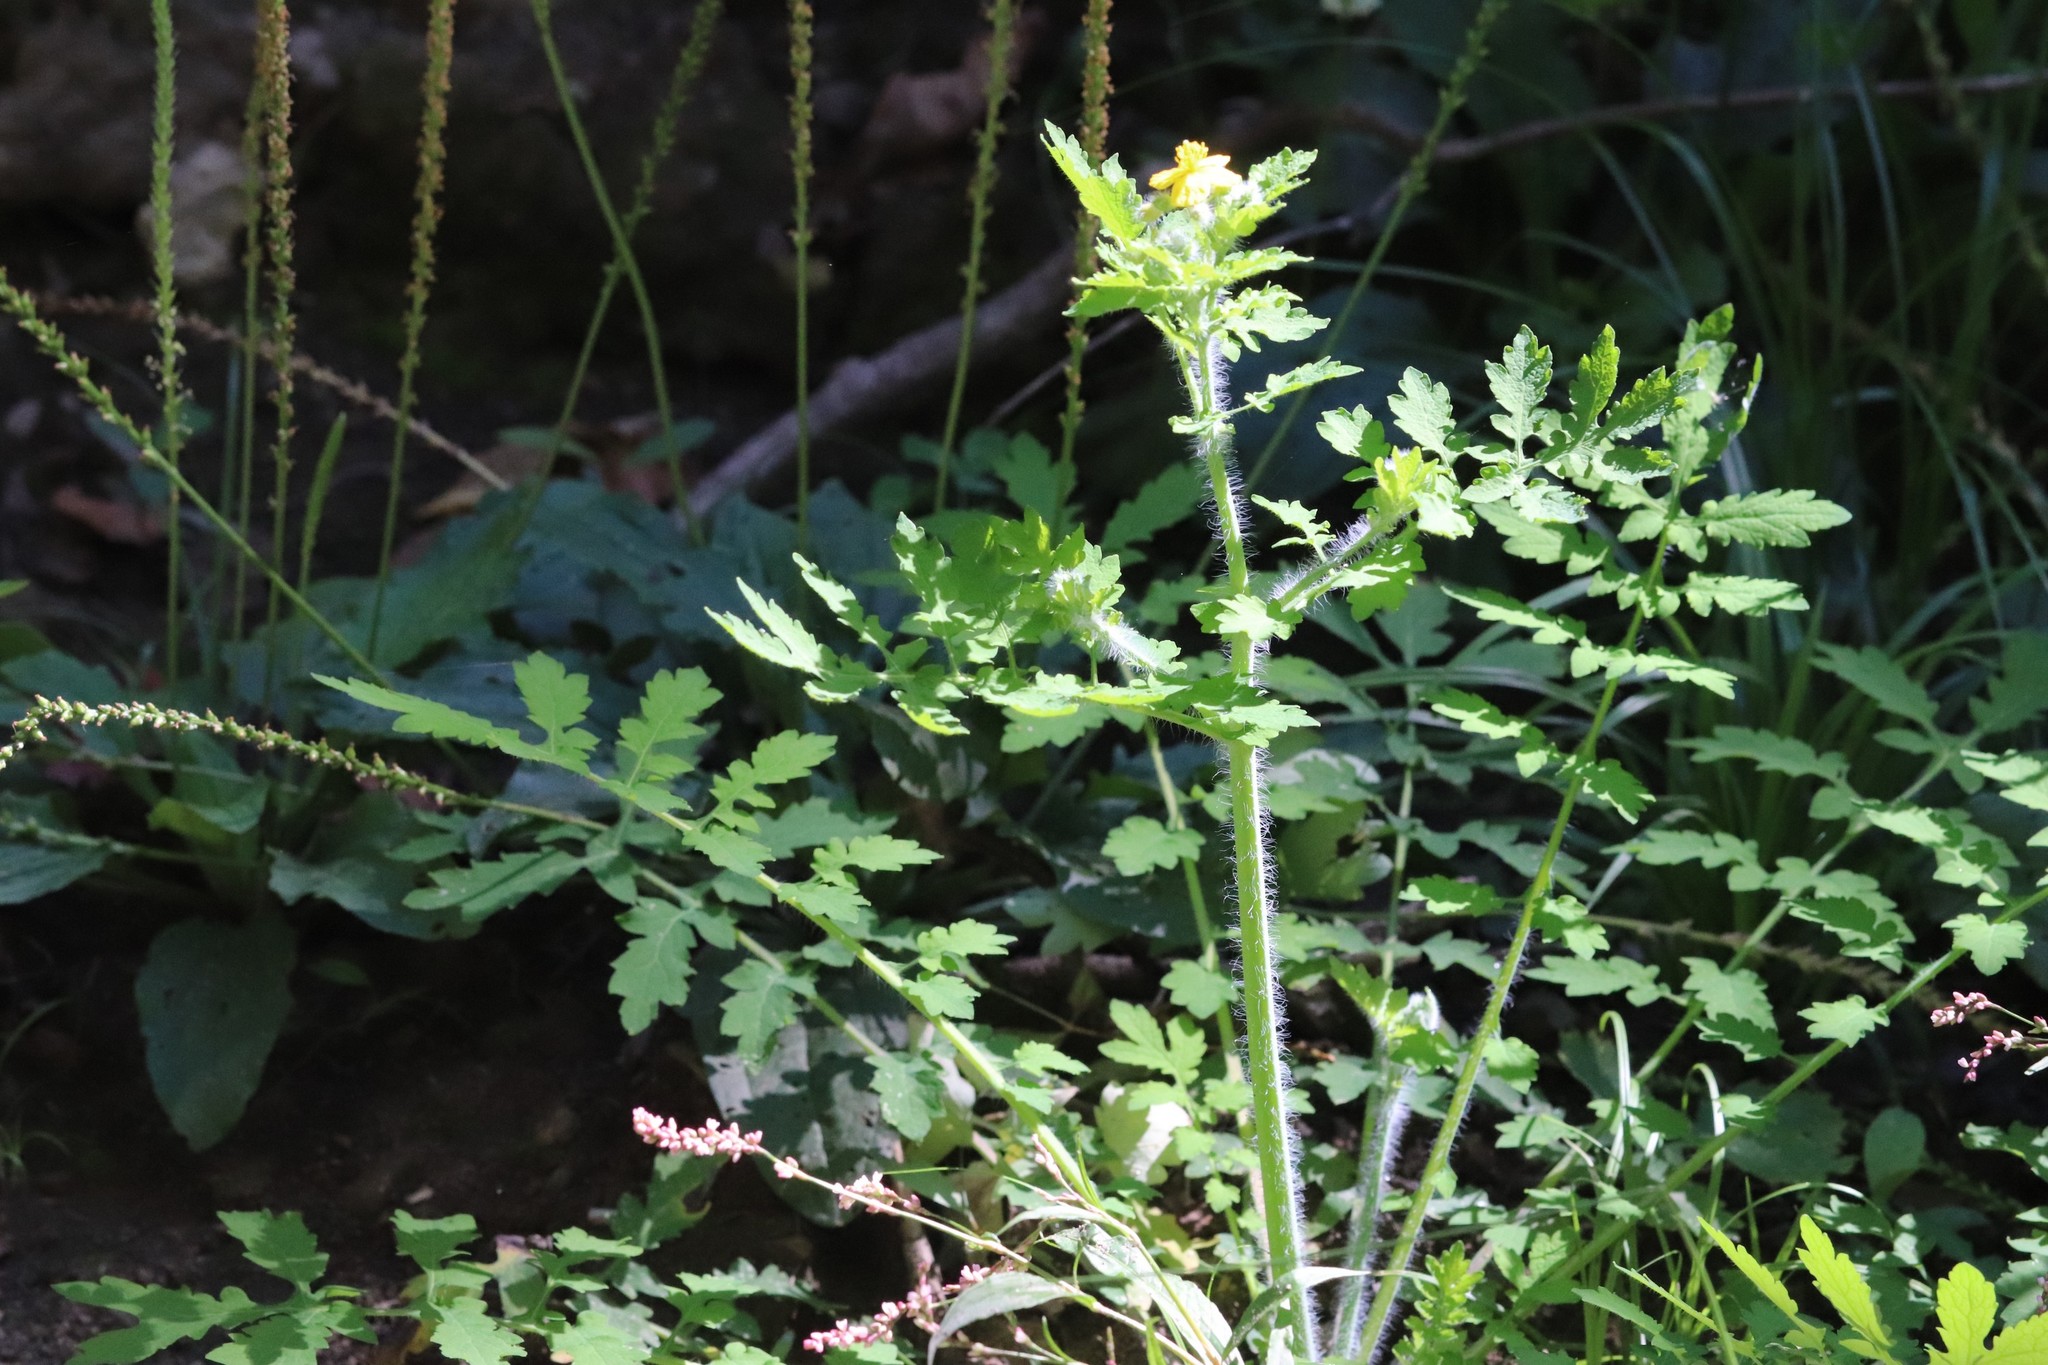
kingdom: Plantae
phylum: Tracheophyta
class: Magnoliopsida
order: Ranunculales
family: Papaveraceae
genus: Chelidonium
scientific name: Chelidonium majus
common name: Greater celandine
